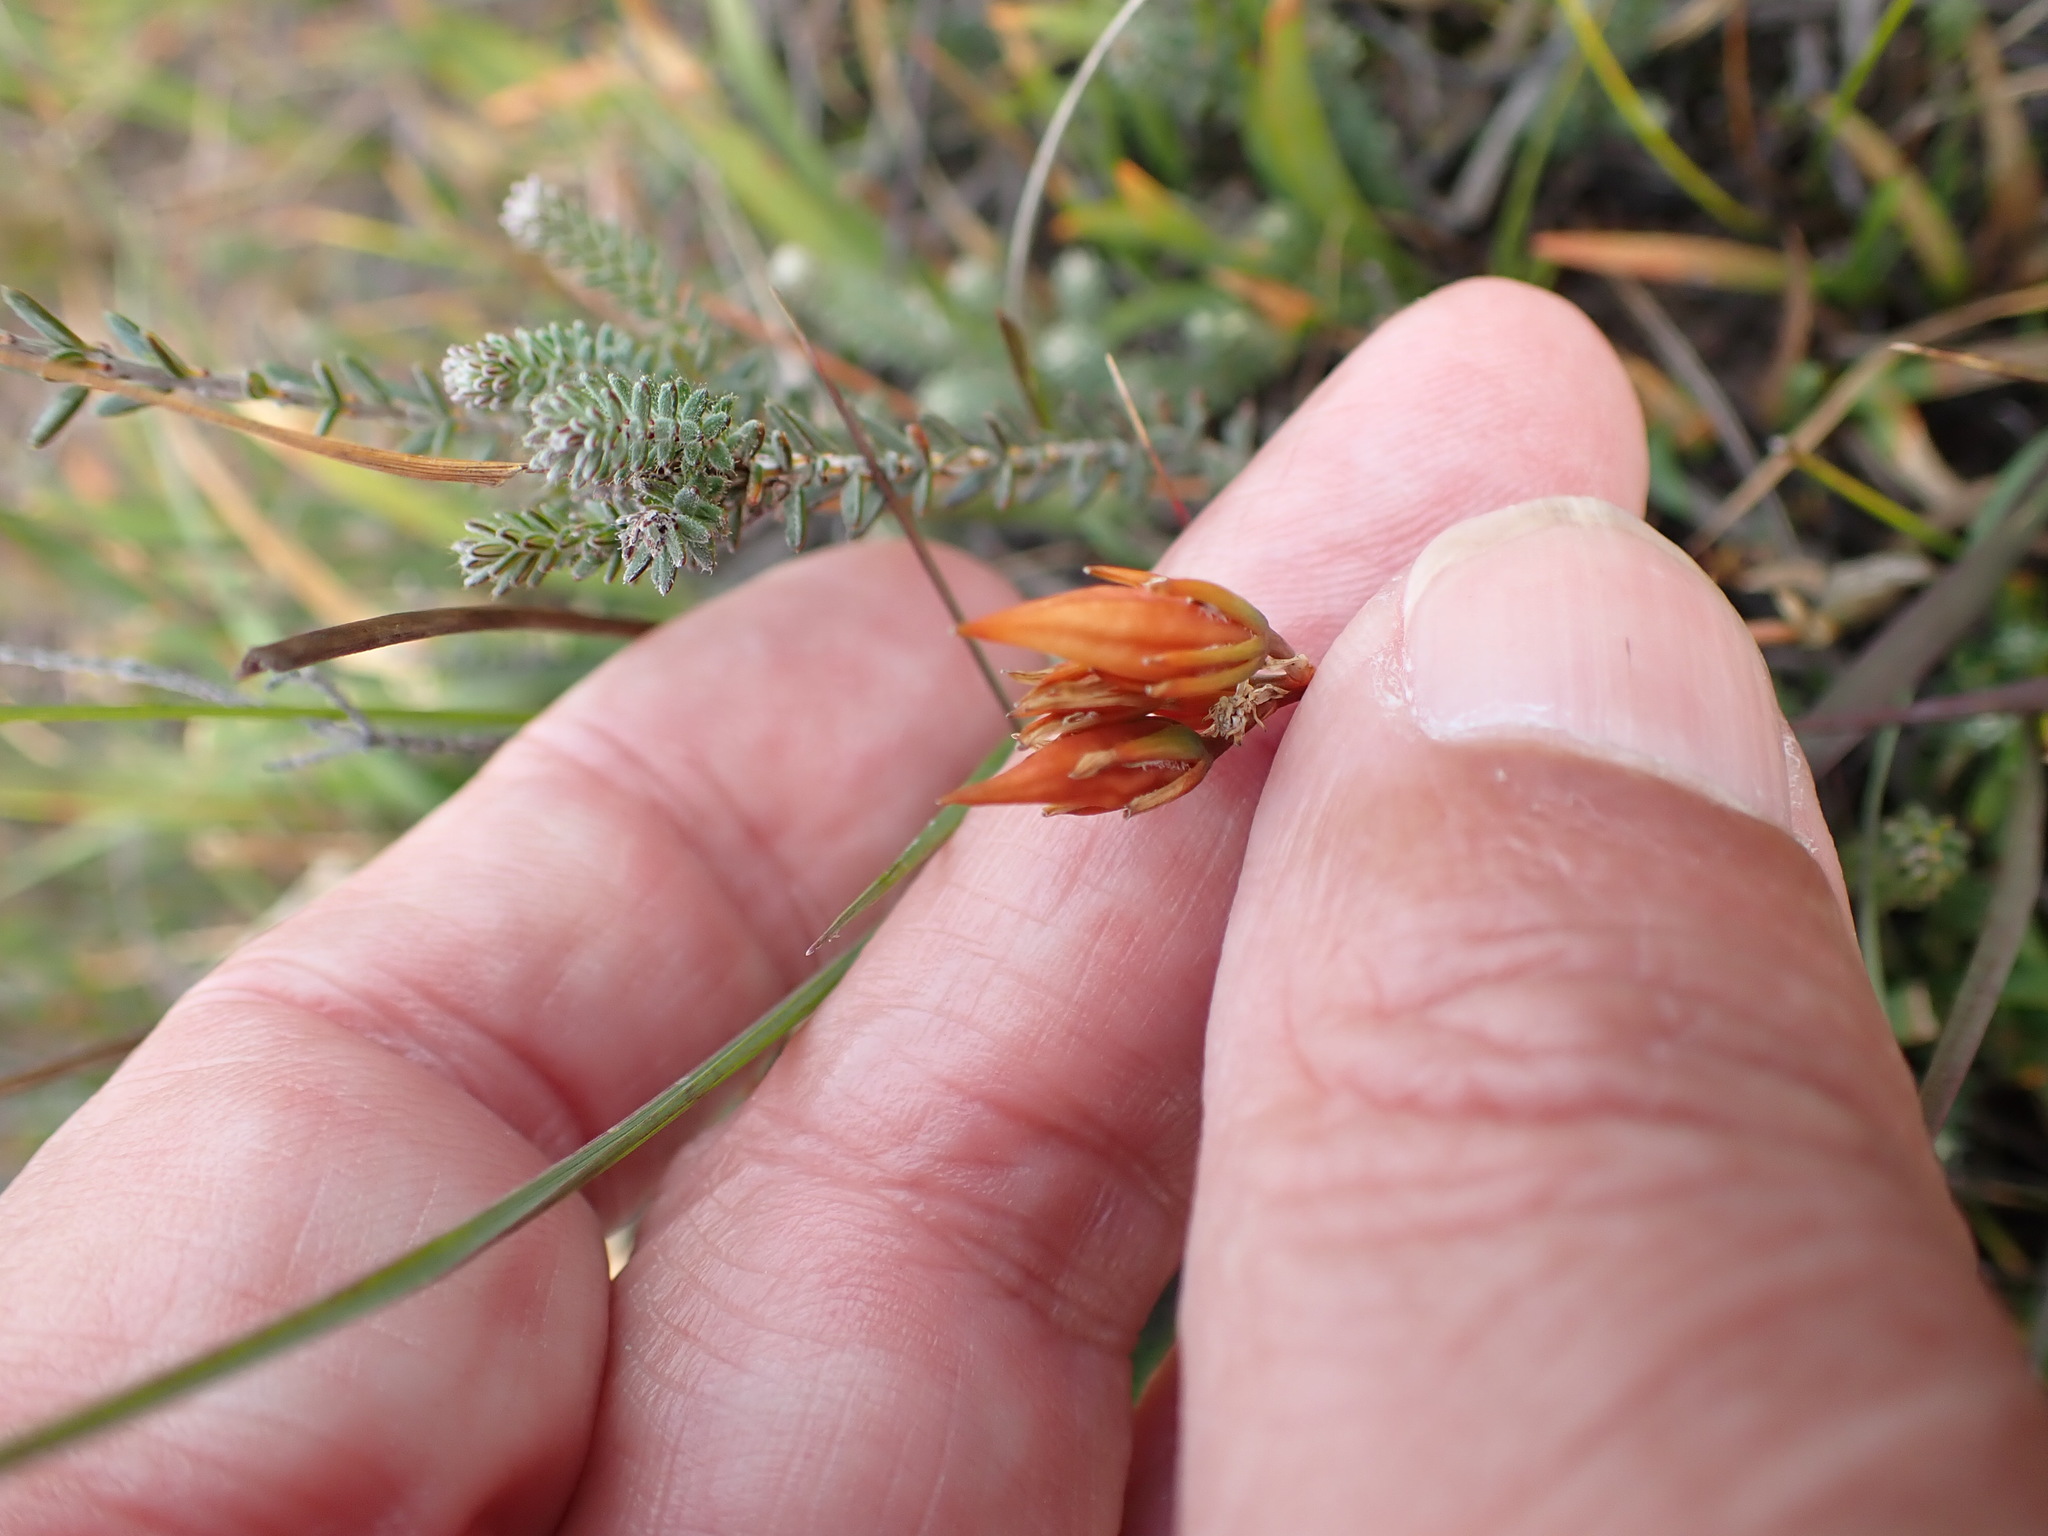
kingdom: Plantae
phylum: Tracheophyta
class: Liliopsida
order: Dioscoreales
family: Nartheciaceae
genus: Narthecium
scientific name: Narthecium ossifragum
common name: Bog asphodel
